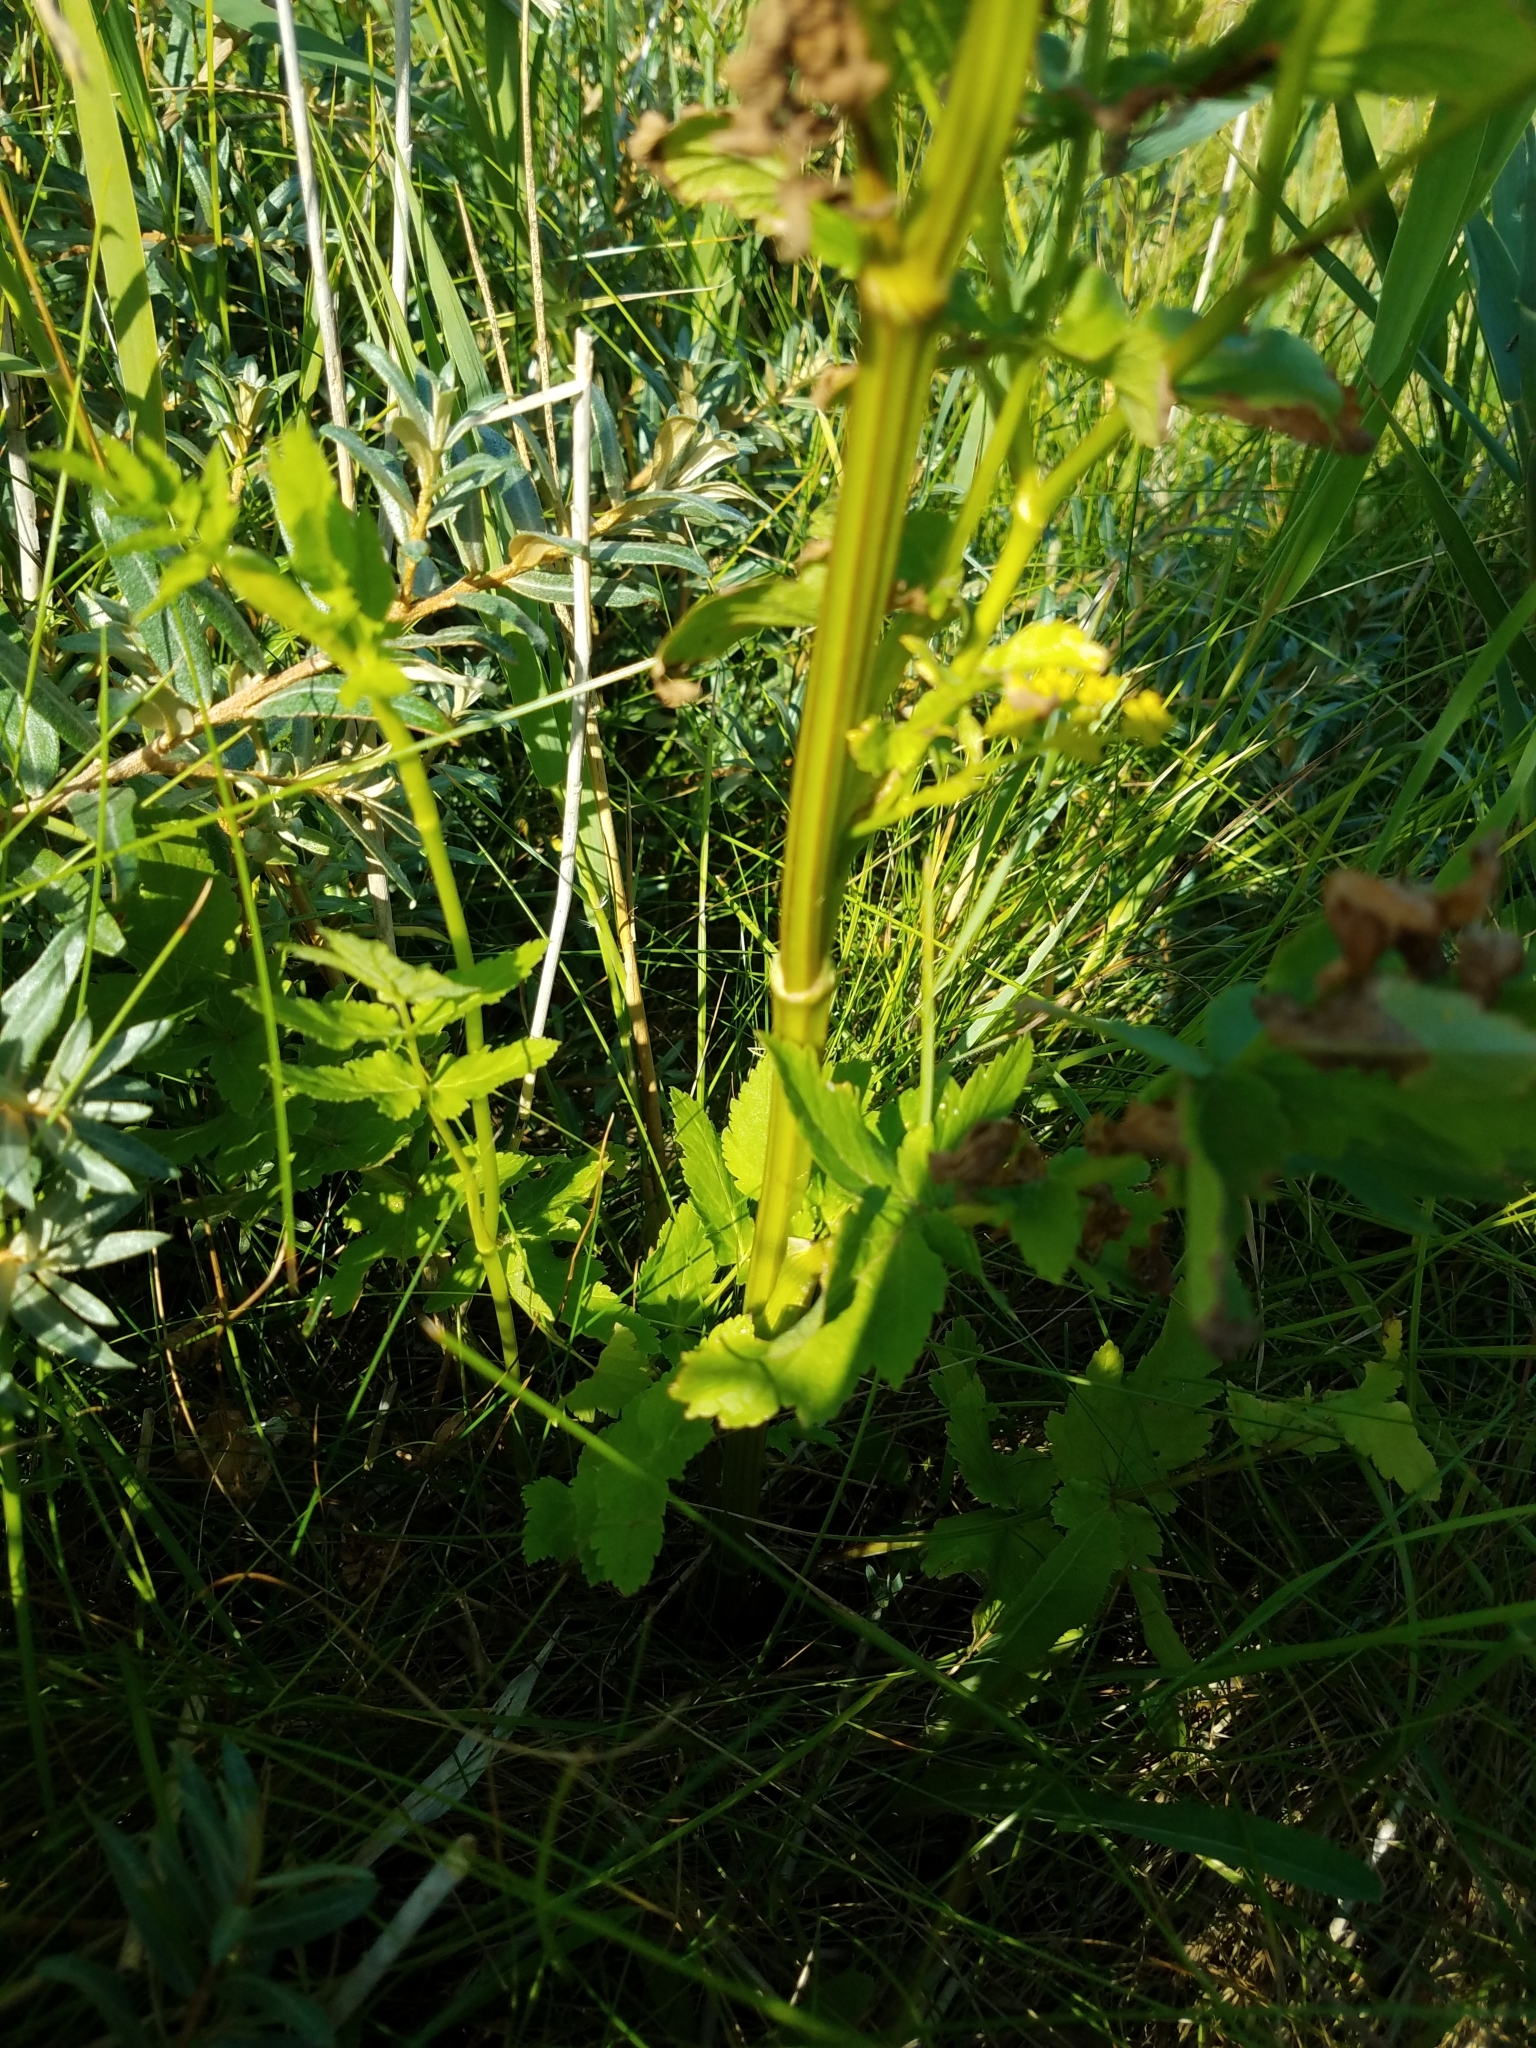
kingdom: Plantae
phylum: Tracheophyta
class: Magnoliopsida
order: Apiales
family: Apiaceae
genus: Pastinaca
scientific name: Pastinaca sativa
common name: Wild parsnip
